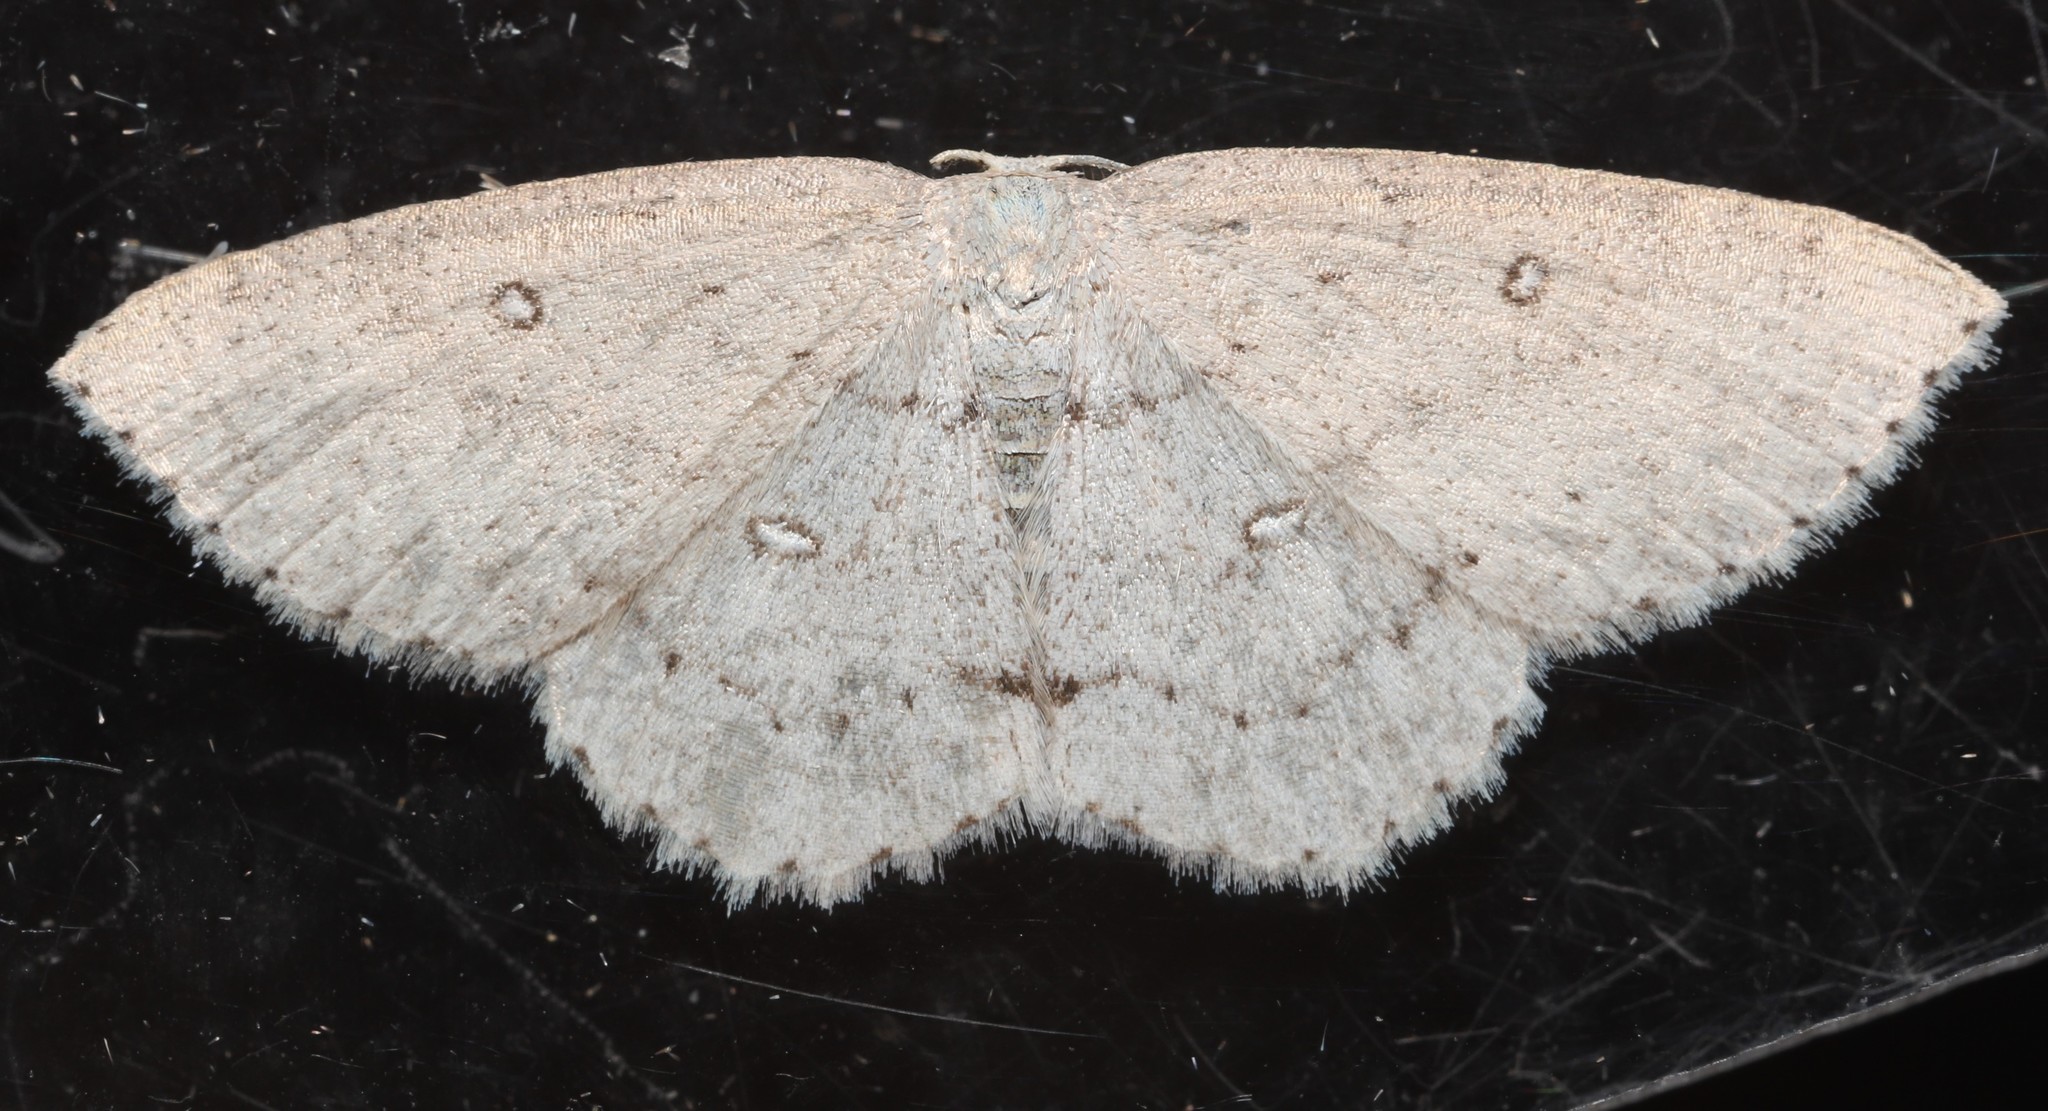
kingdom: Animalia
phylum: Arthropoda
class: Insecta
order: Lepidoptera
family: Geometridae
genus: Cyclophora
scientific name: Cyclophora pendulinaria
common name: Sweet fern geometer
